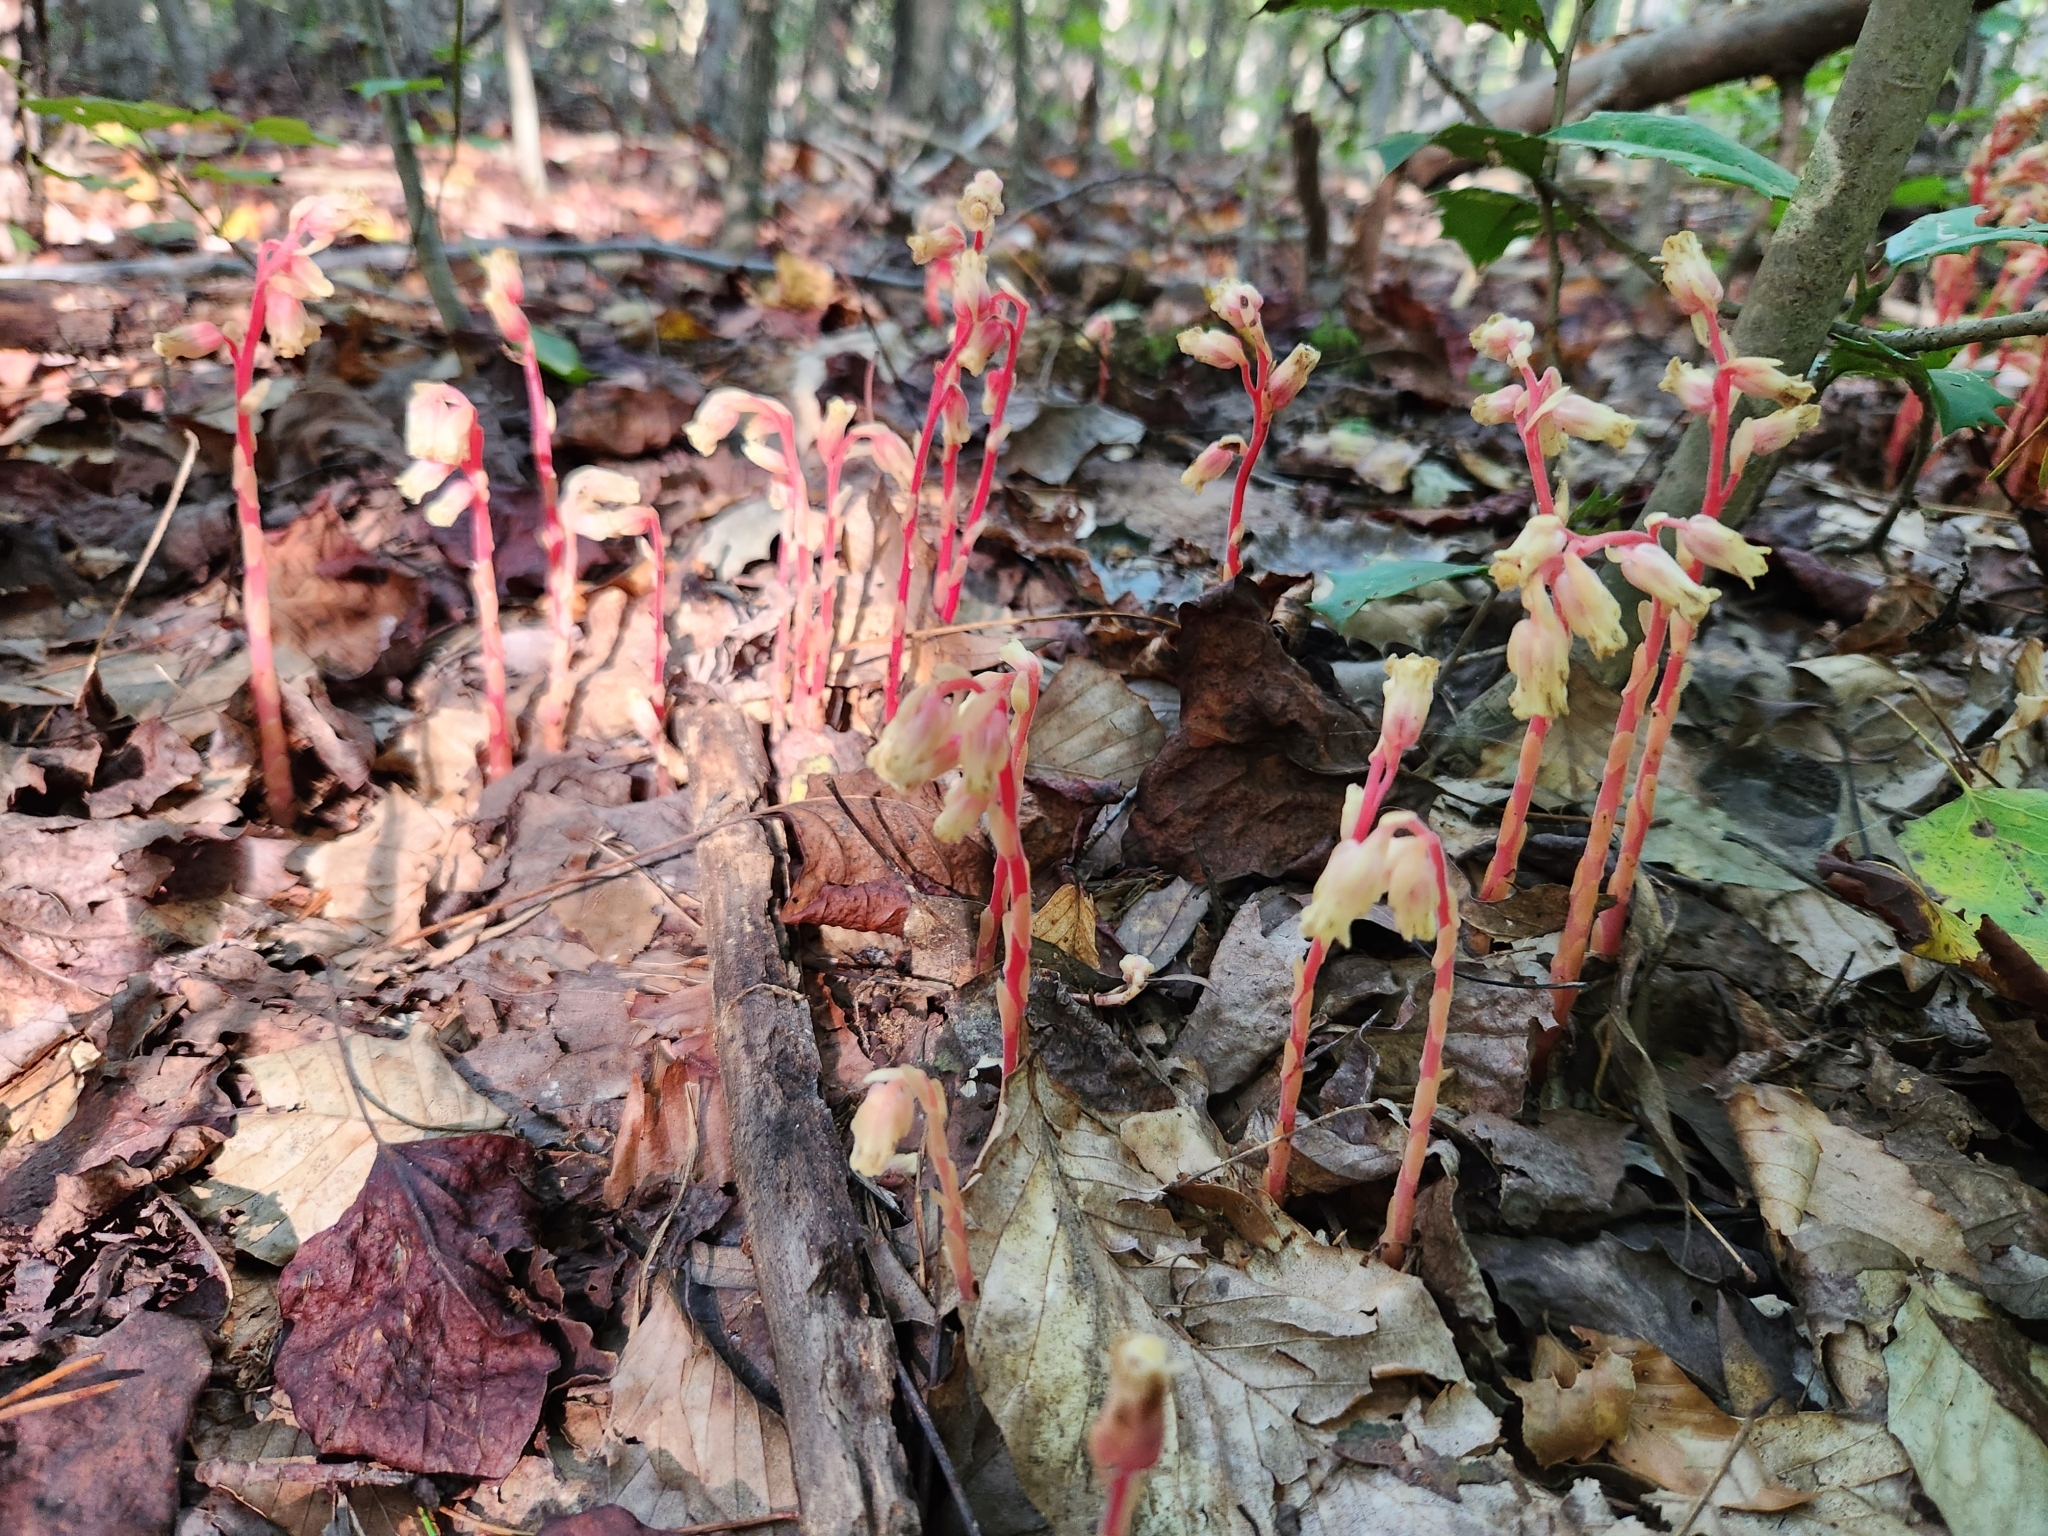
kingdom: Plantae
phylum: Tracheophyta
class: Magnoliopsida
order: Ericales
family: Ericaceae
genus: Hypopitys
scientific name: Hypopitys monotropa
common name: Yellow bird's-nest
